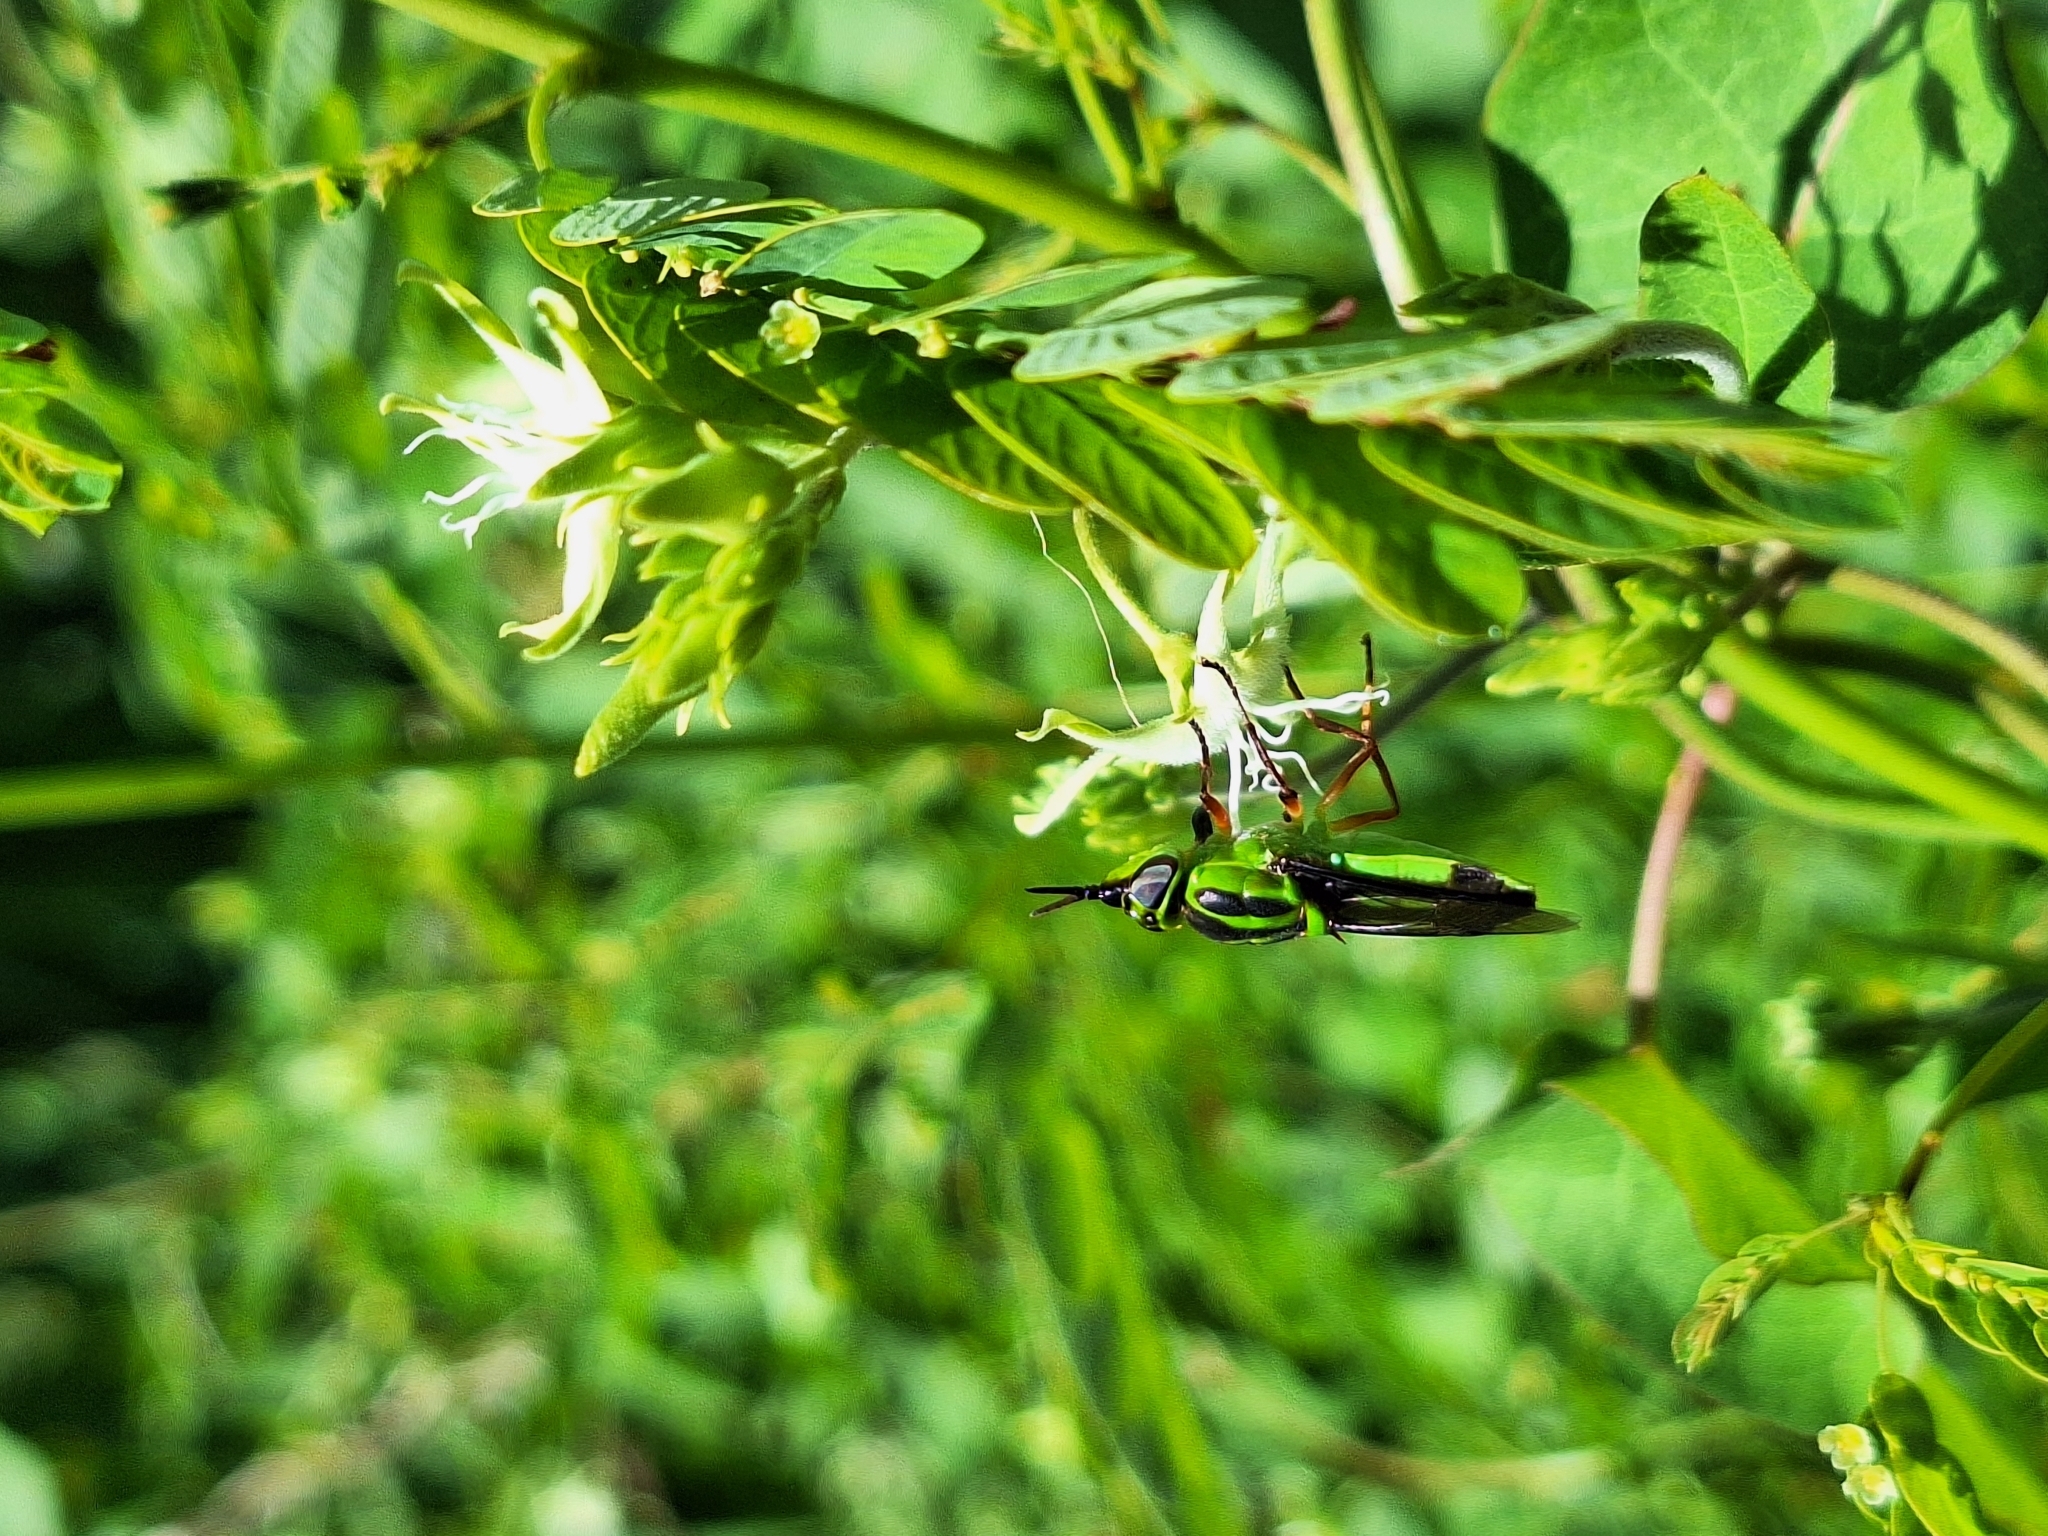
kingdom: Animalia
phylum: Arthropoda
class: Insecta
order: Diptera
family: Stratiomyidae
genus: Hedriodiscus
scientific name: Hedriodiscus pulcher
